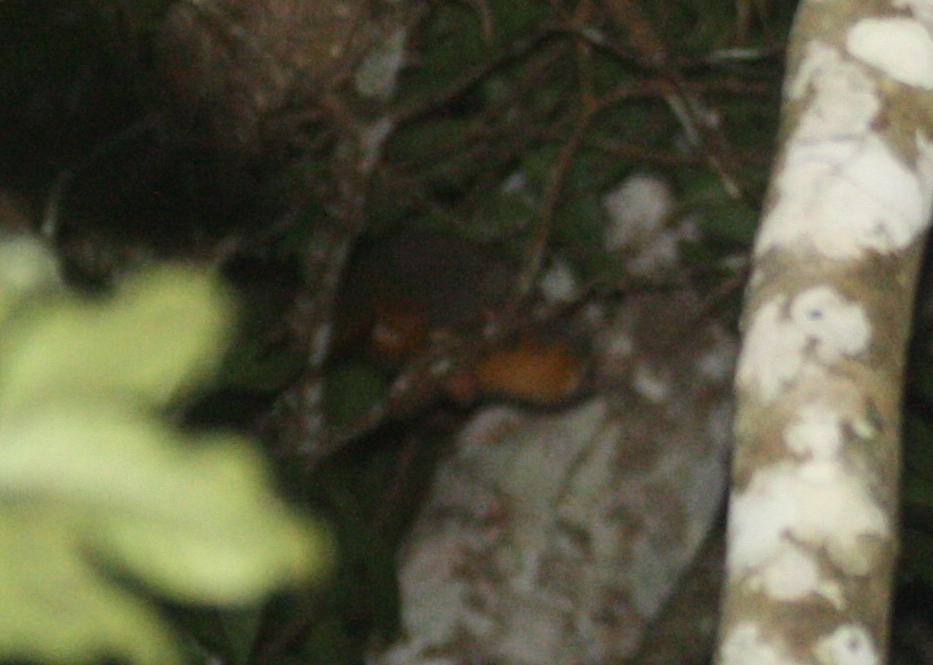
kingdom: Animalia
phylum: Chordata
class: Mammalia
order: Primates
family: Aotidae
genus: Aotus
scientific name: Aotus nigriceps
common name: Black-headed night monkey
